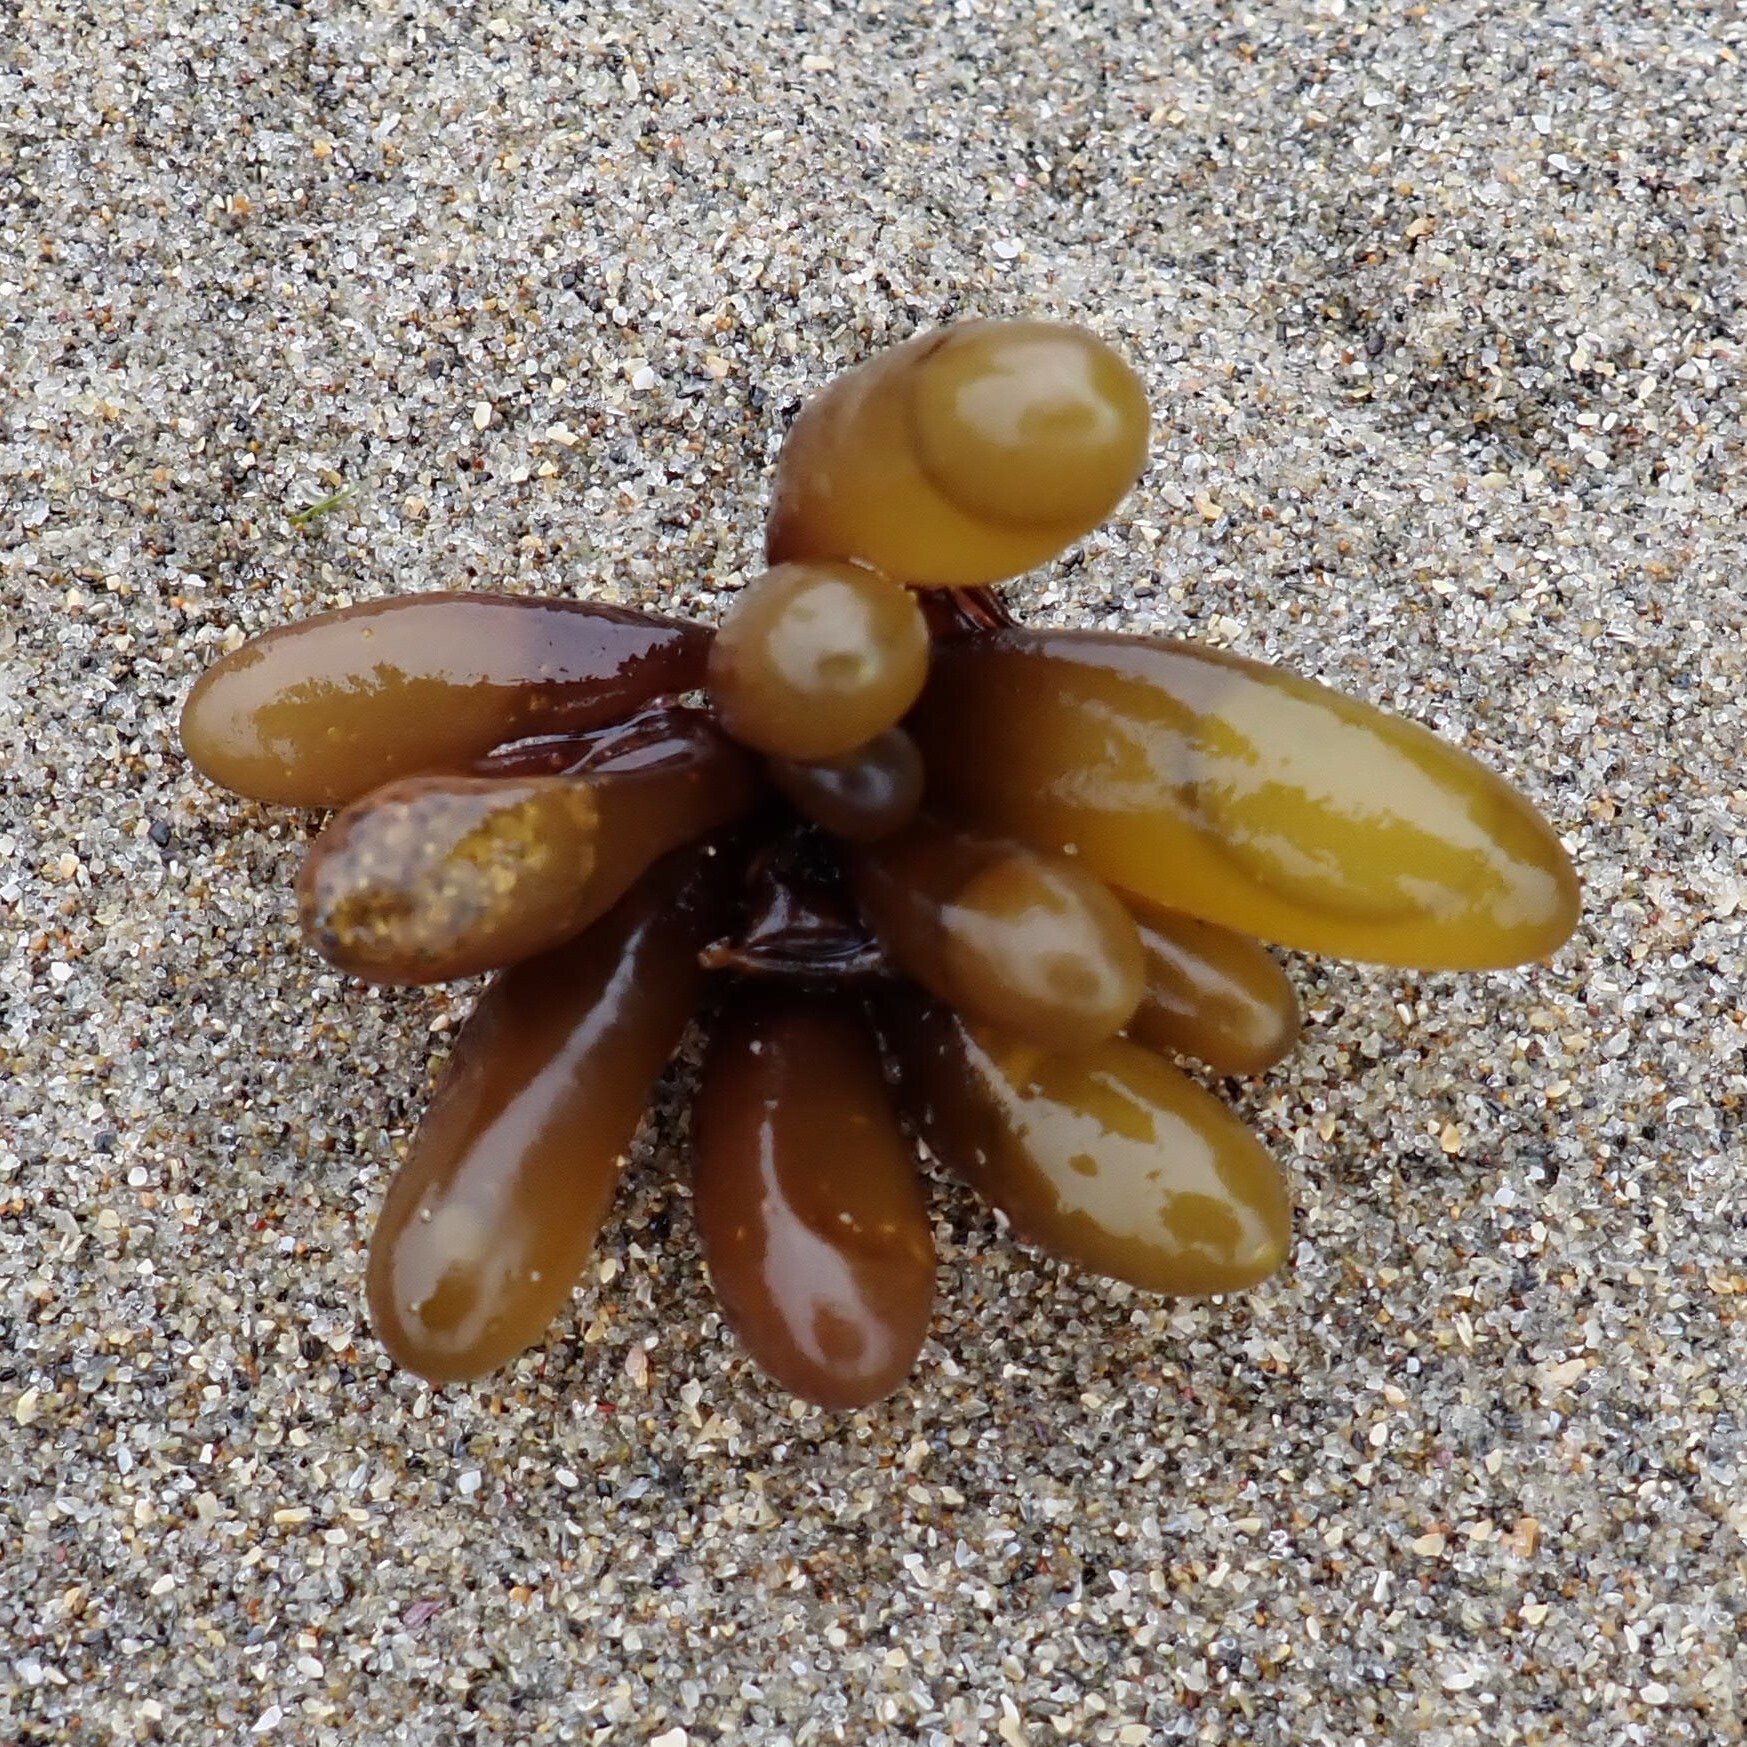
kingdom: Plantae
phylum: Rhodophyta
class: Florideophyceae
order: Palmariales
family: Palmariaceae
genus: Halosaccion
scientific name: Halosaccion glandiforme
